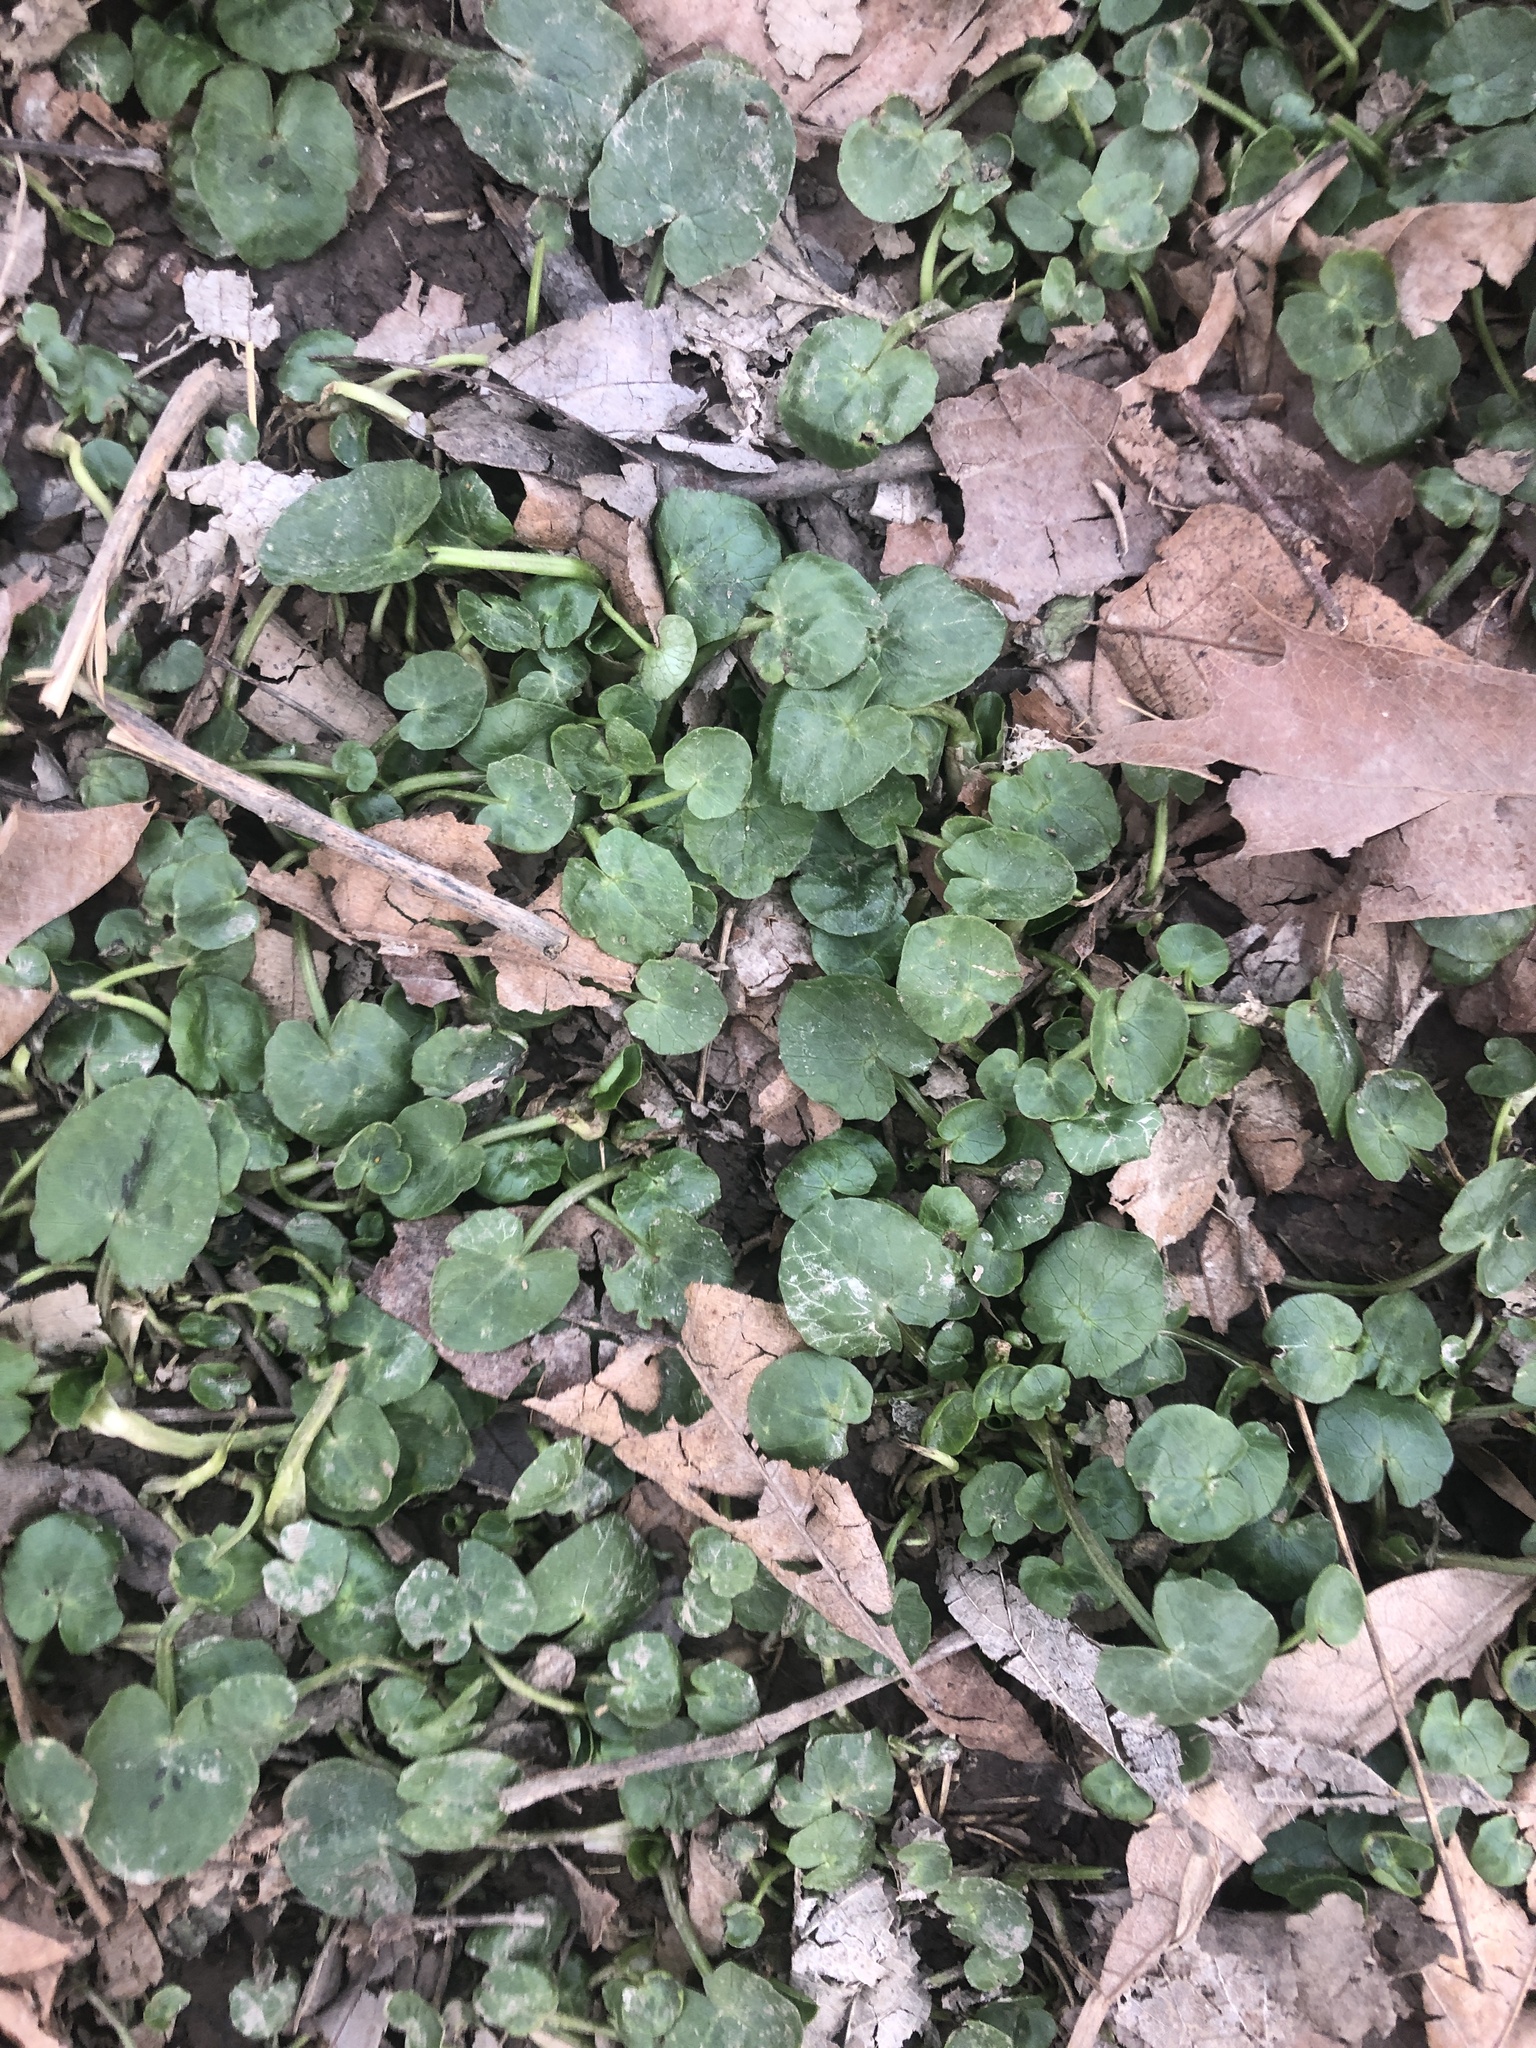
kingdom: Plantae
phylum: Tracheophyta
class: Magnoliopsida
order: Ranunculales
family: Ranunculaceae
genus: Ficaria
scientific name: Ficaria verna
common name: Lesser celandine
